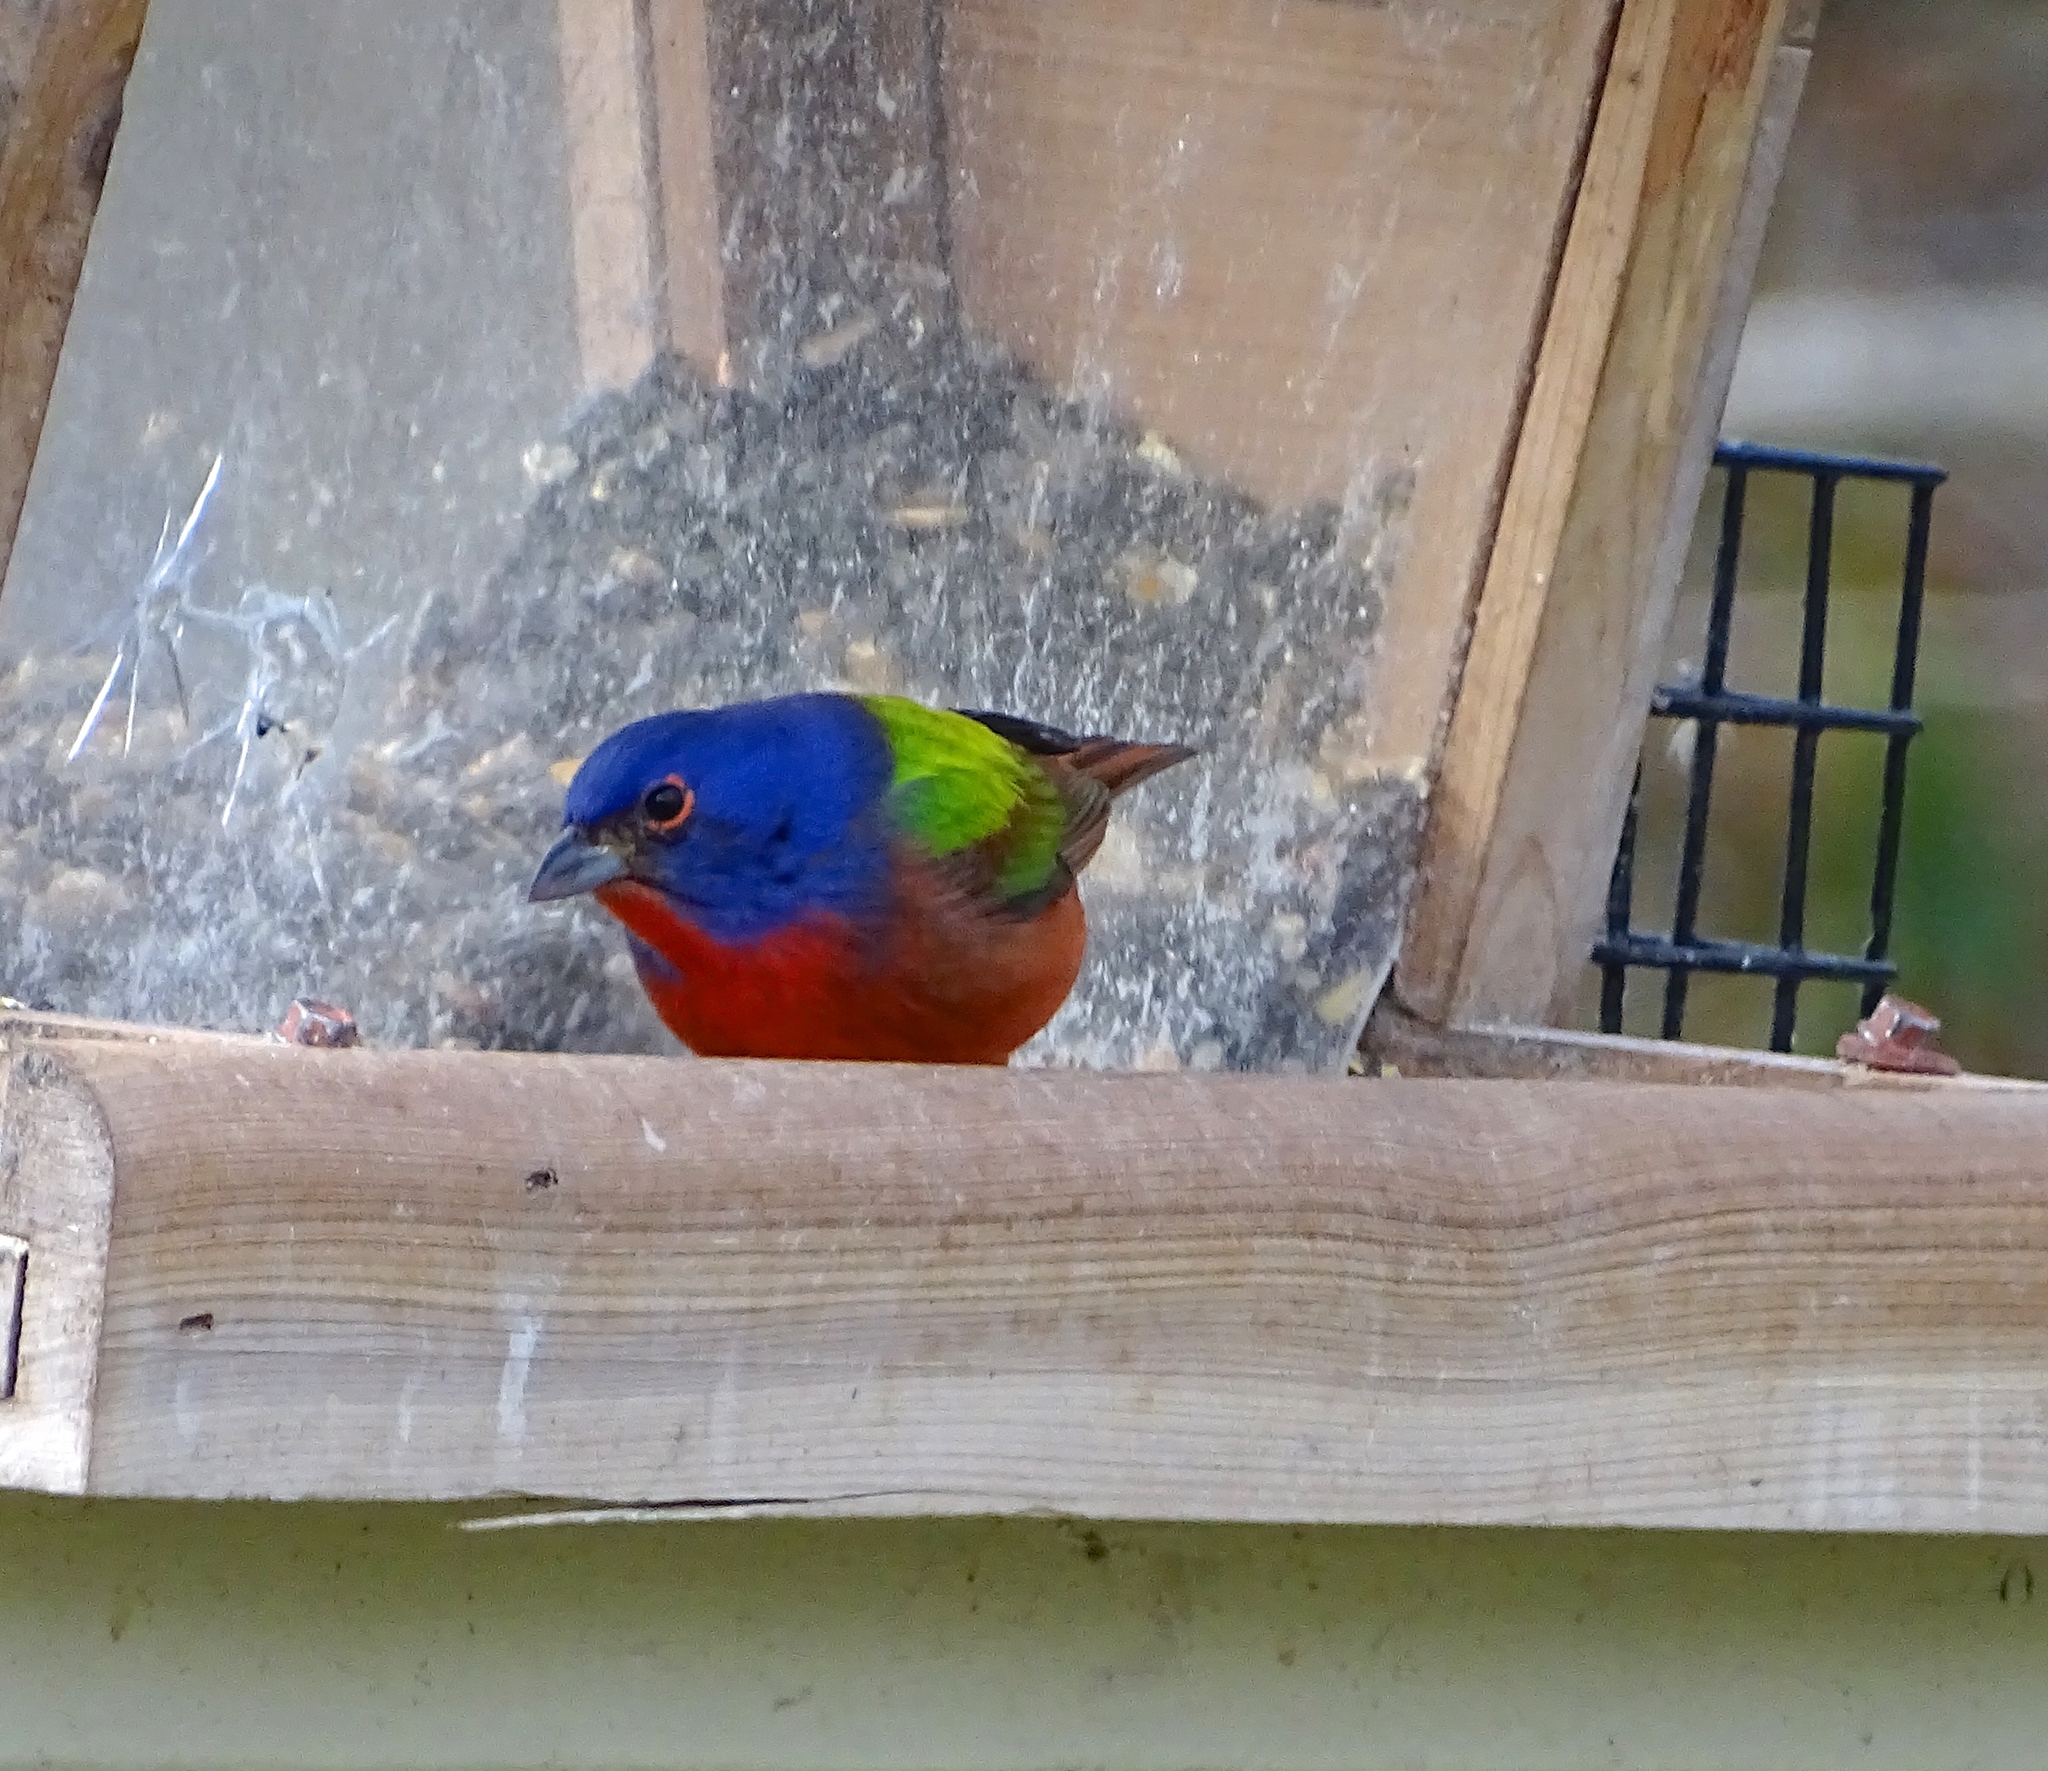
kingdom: Animalia
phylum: Chordata
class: Aves
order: Passeriformes
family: Cardinalidae
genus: Passerina
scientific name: Passerina ciris
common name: Painted bunting
